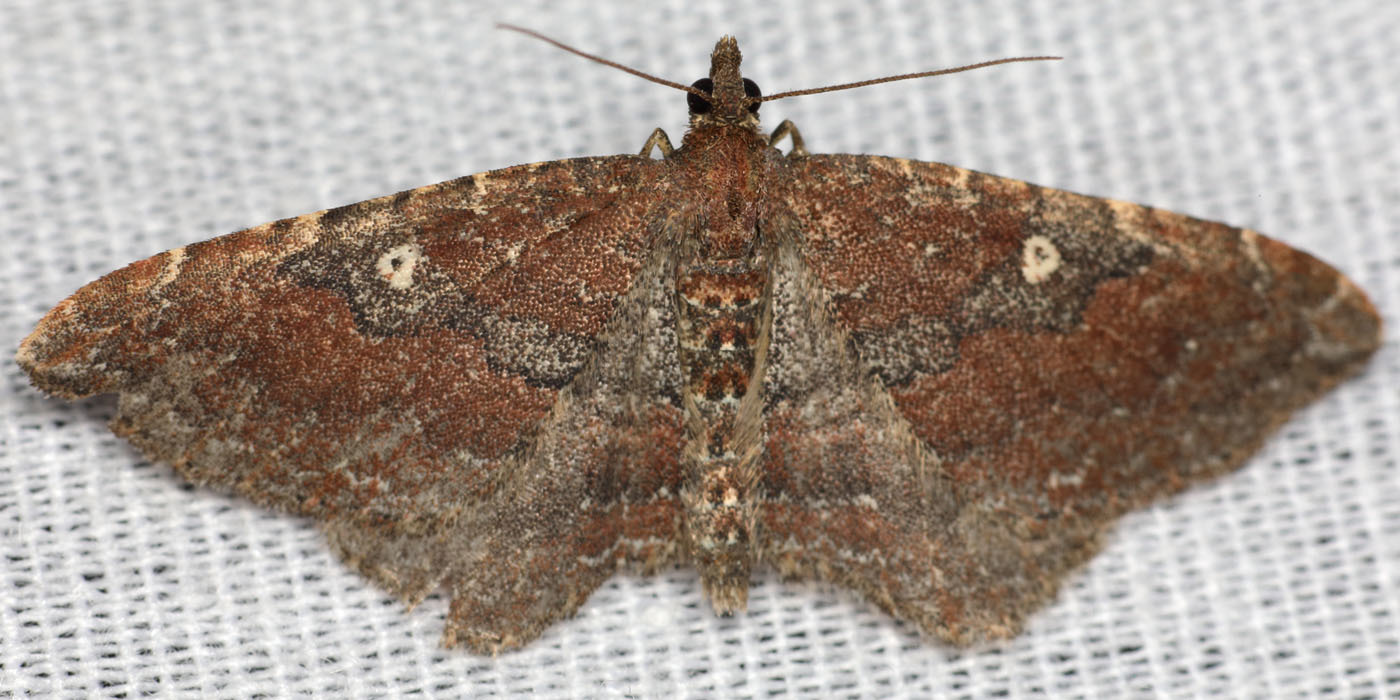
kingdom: Animalia
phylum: Arthropoda
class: Insecta
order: Lepidoptera
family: Geometridae
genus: Orthonama
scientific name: Orthonama obstipata
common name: The gem
